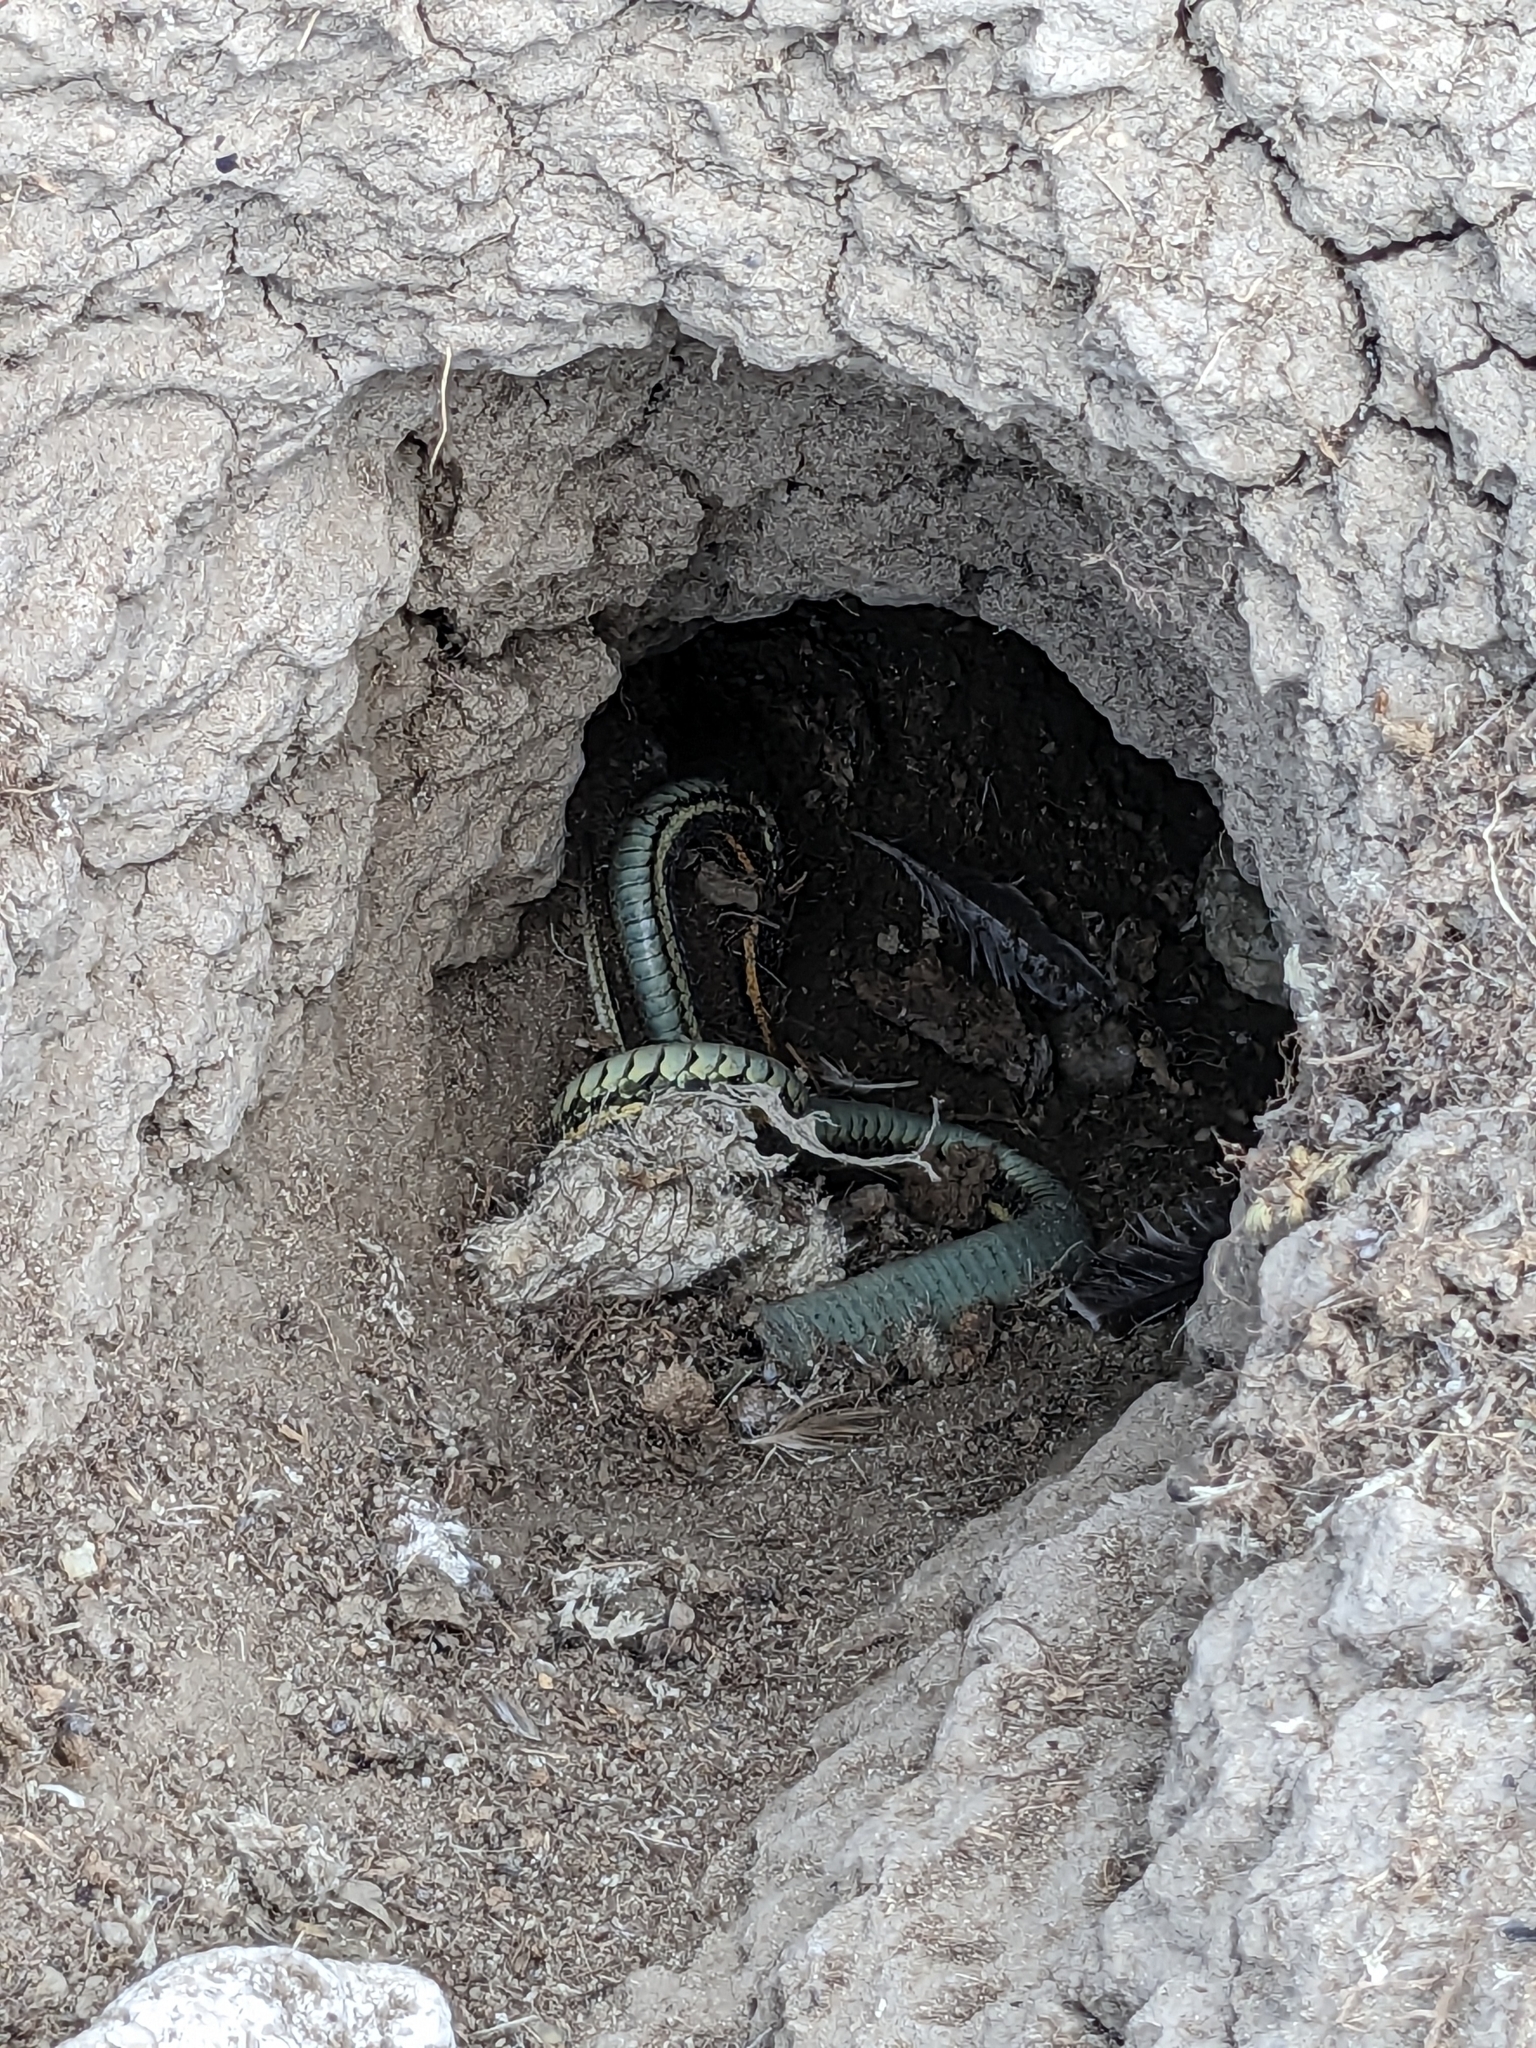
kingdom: Animalia
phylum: Chordata
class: Squamata
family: Colubridae
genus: Thamnophis
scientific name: Thamnophis radix
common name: Plains garter snake
